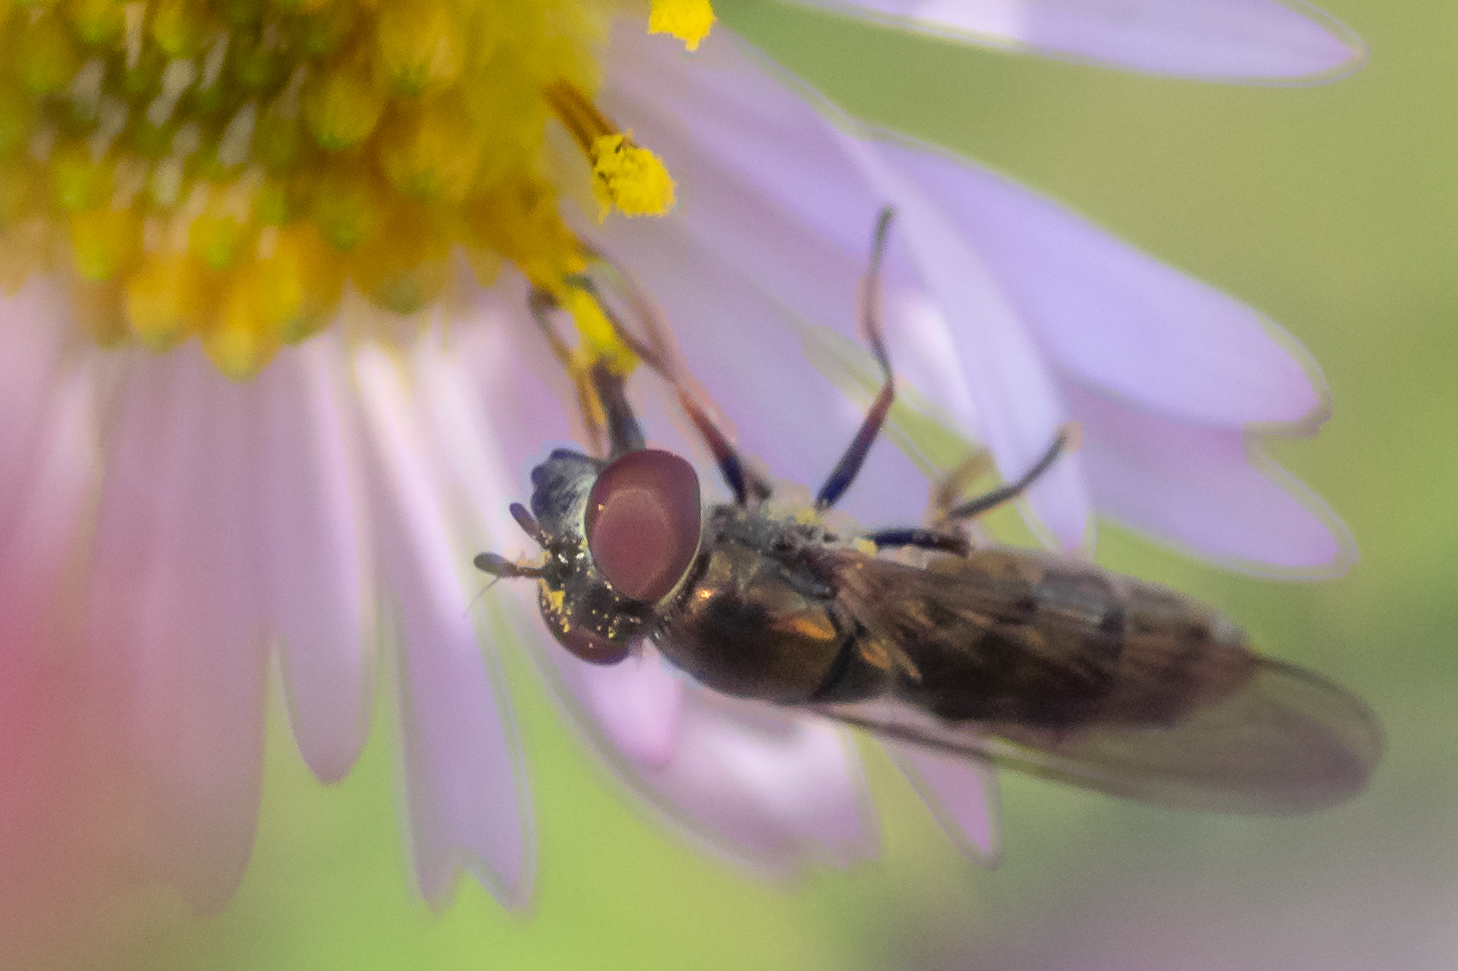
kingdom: Animalia
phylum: Arthropoda
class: Insecta
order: Diptera
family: Syrphidae
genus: Platycheirus
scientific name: Platycheirus obscurus
